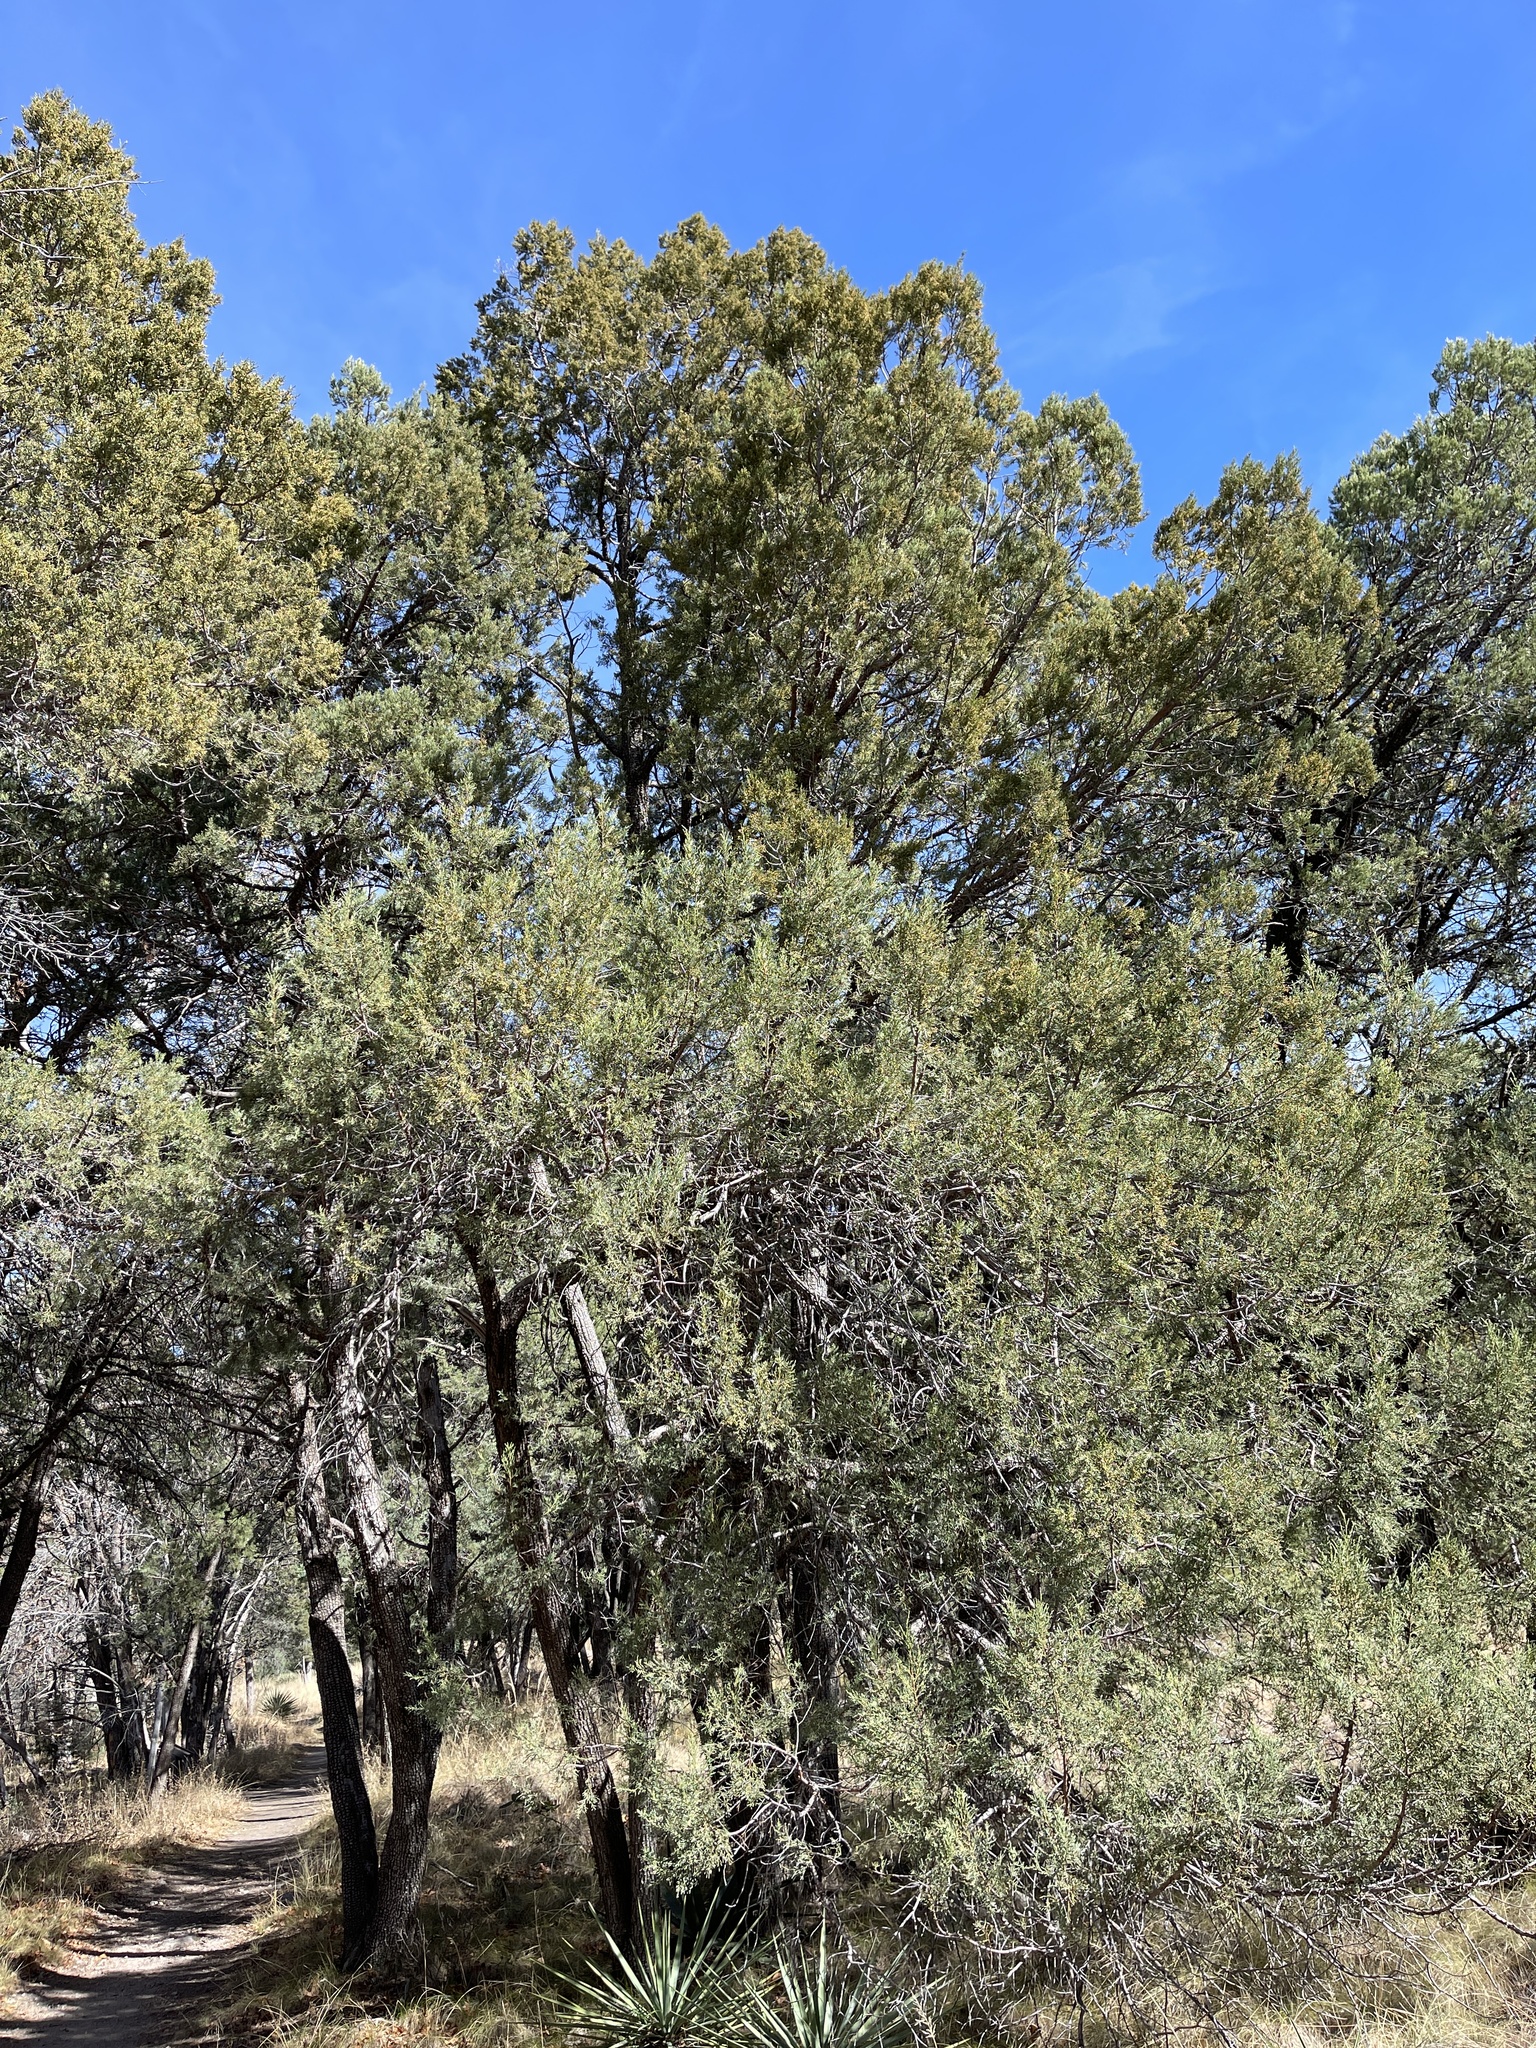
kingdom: Plantae
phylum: Tracheophyta
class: Pinopsida
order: Pinales
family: Cupressaceae
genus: Juniperus
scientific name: Juniperus deppeana
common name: Alligator juniper
